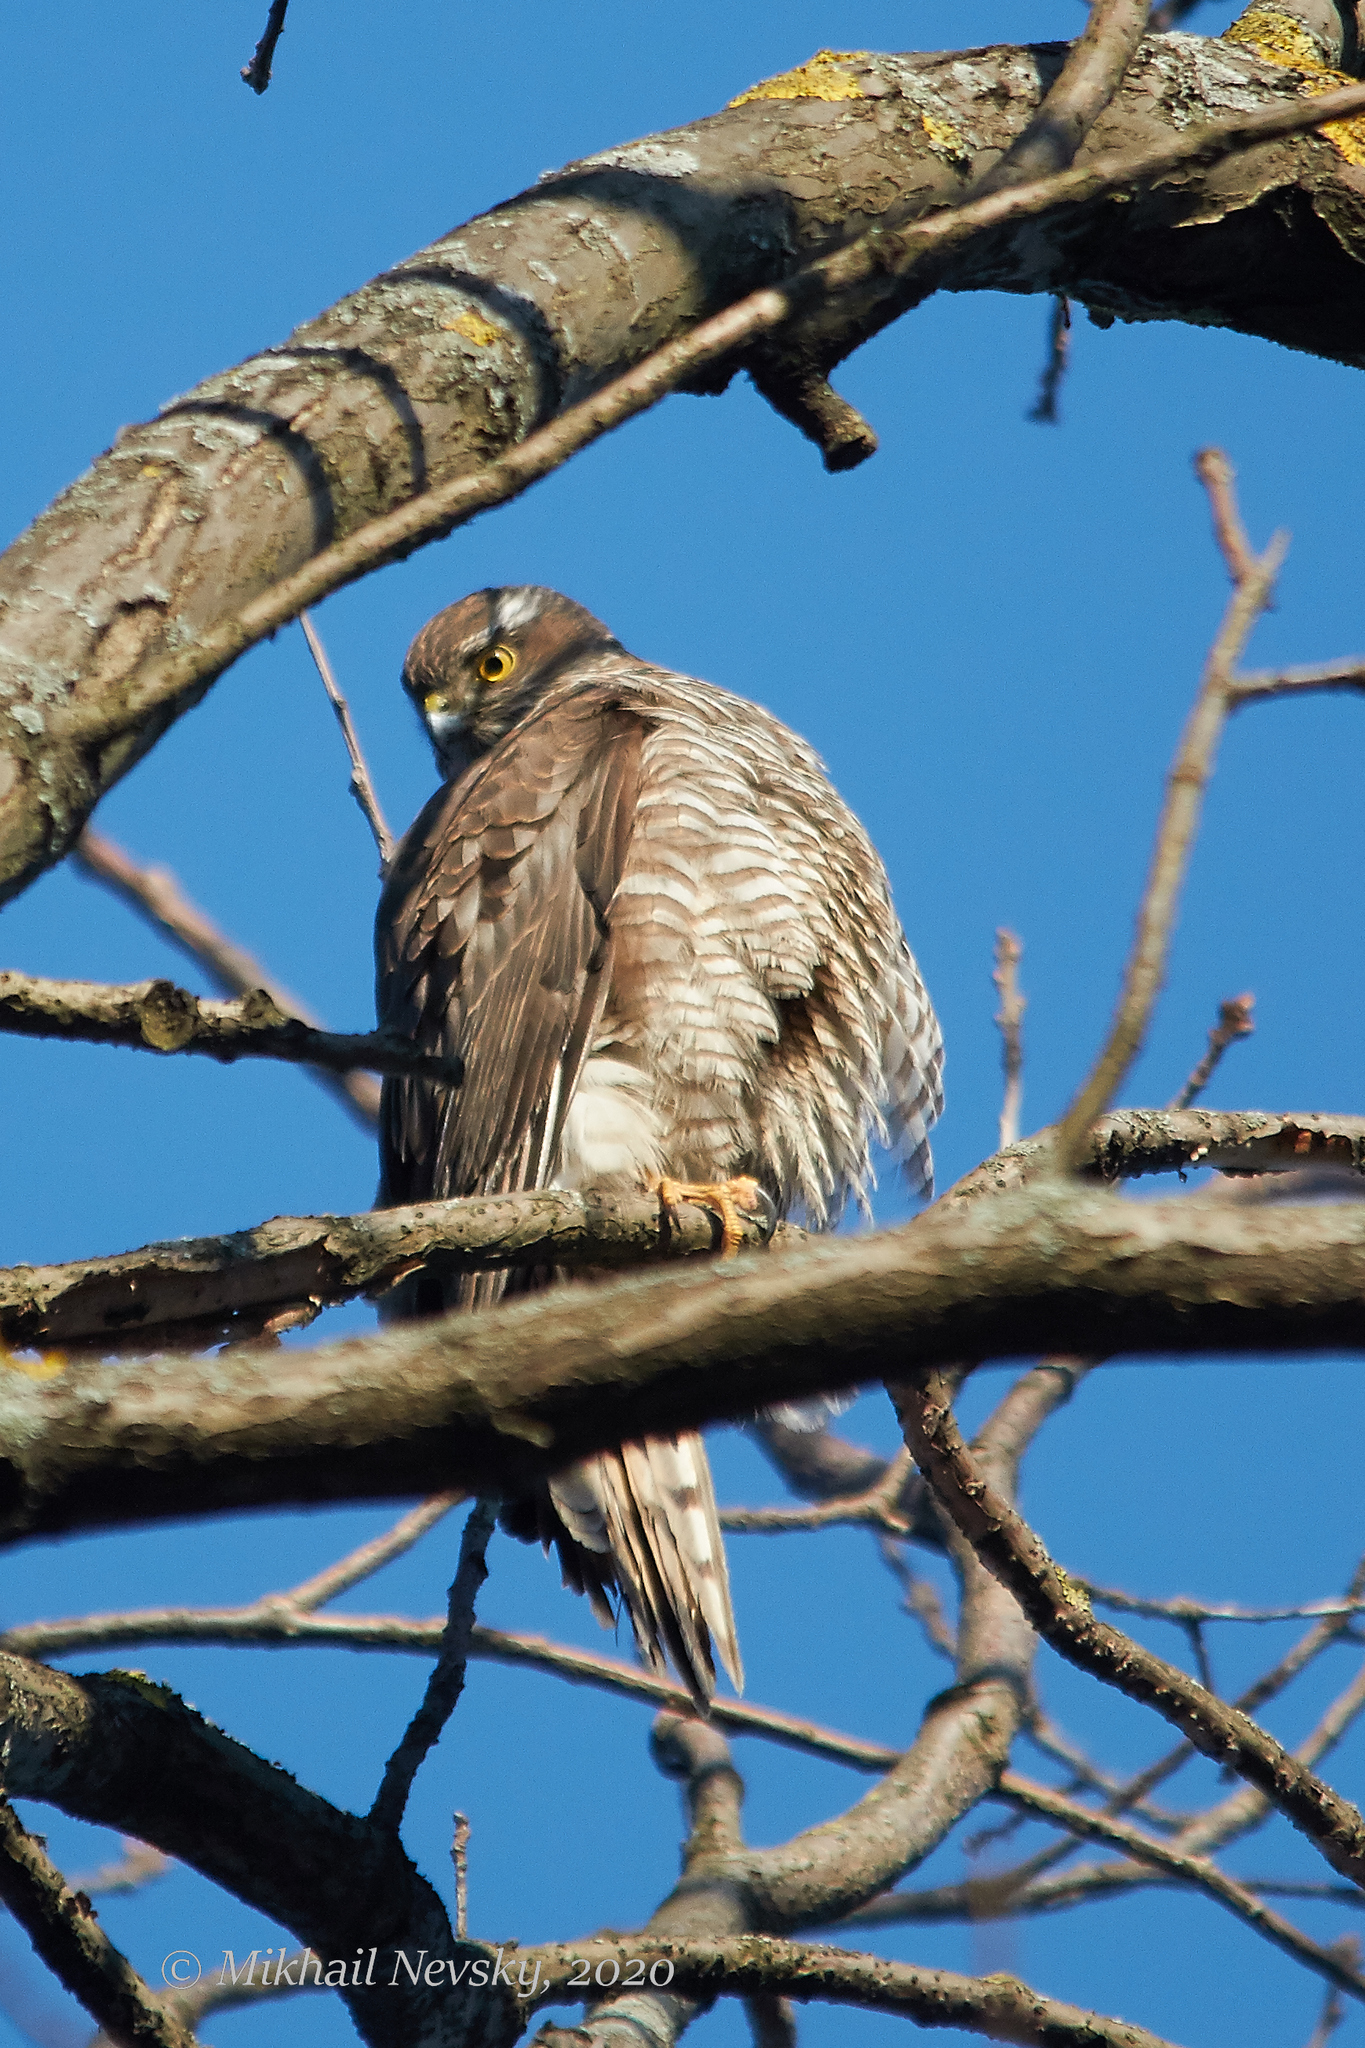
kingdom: Animalia
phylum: Chordata
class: Aves
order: Accipitriformes
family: Accipitridae
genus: Accipiter
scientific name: Accipiter nisus
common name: Eurasian sparrowhawk
